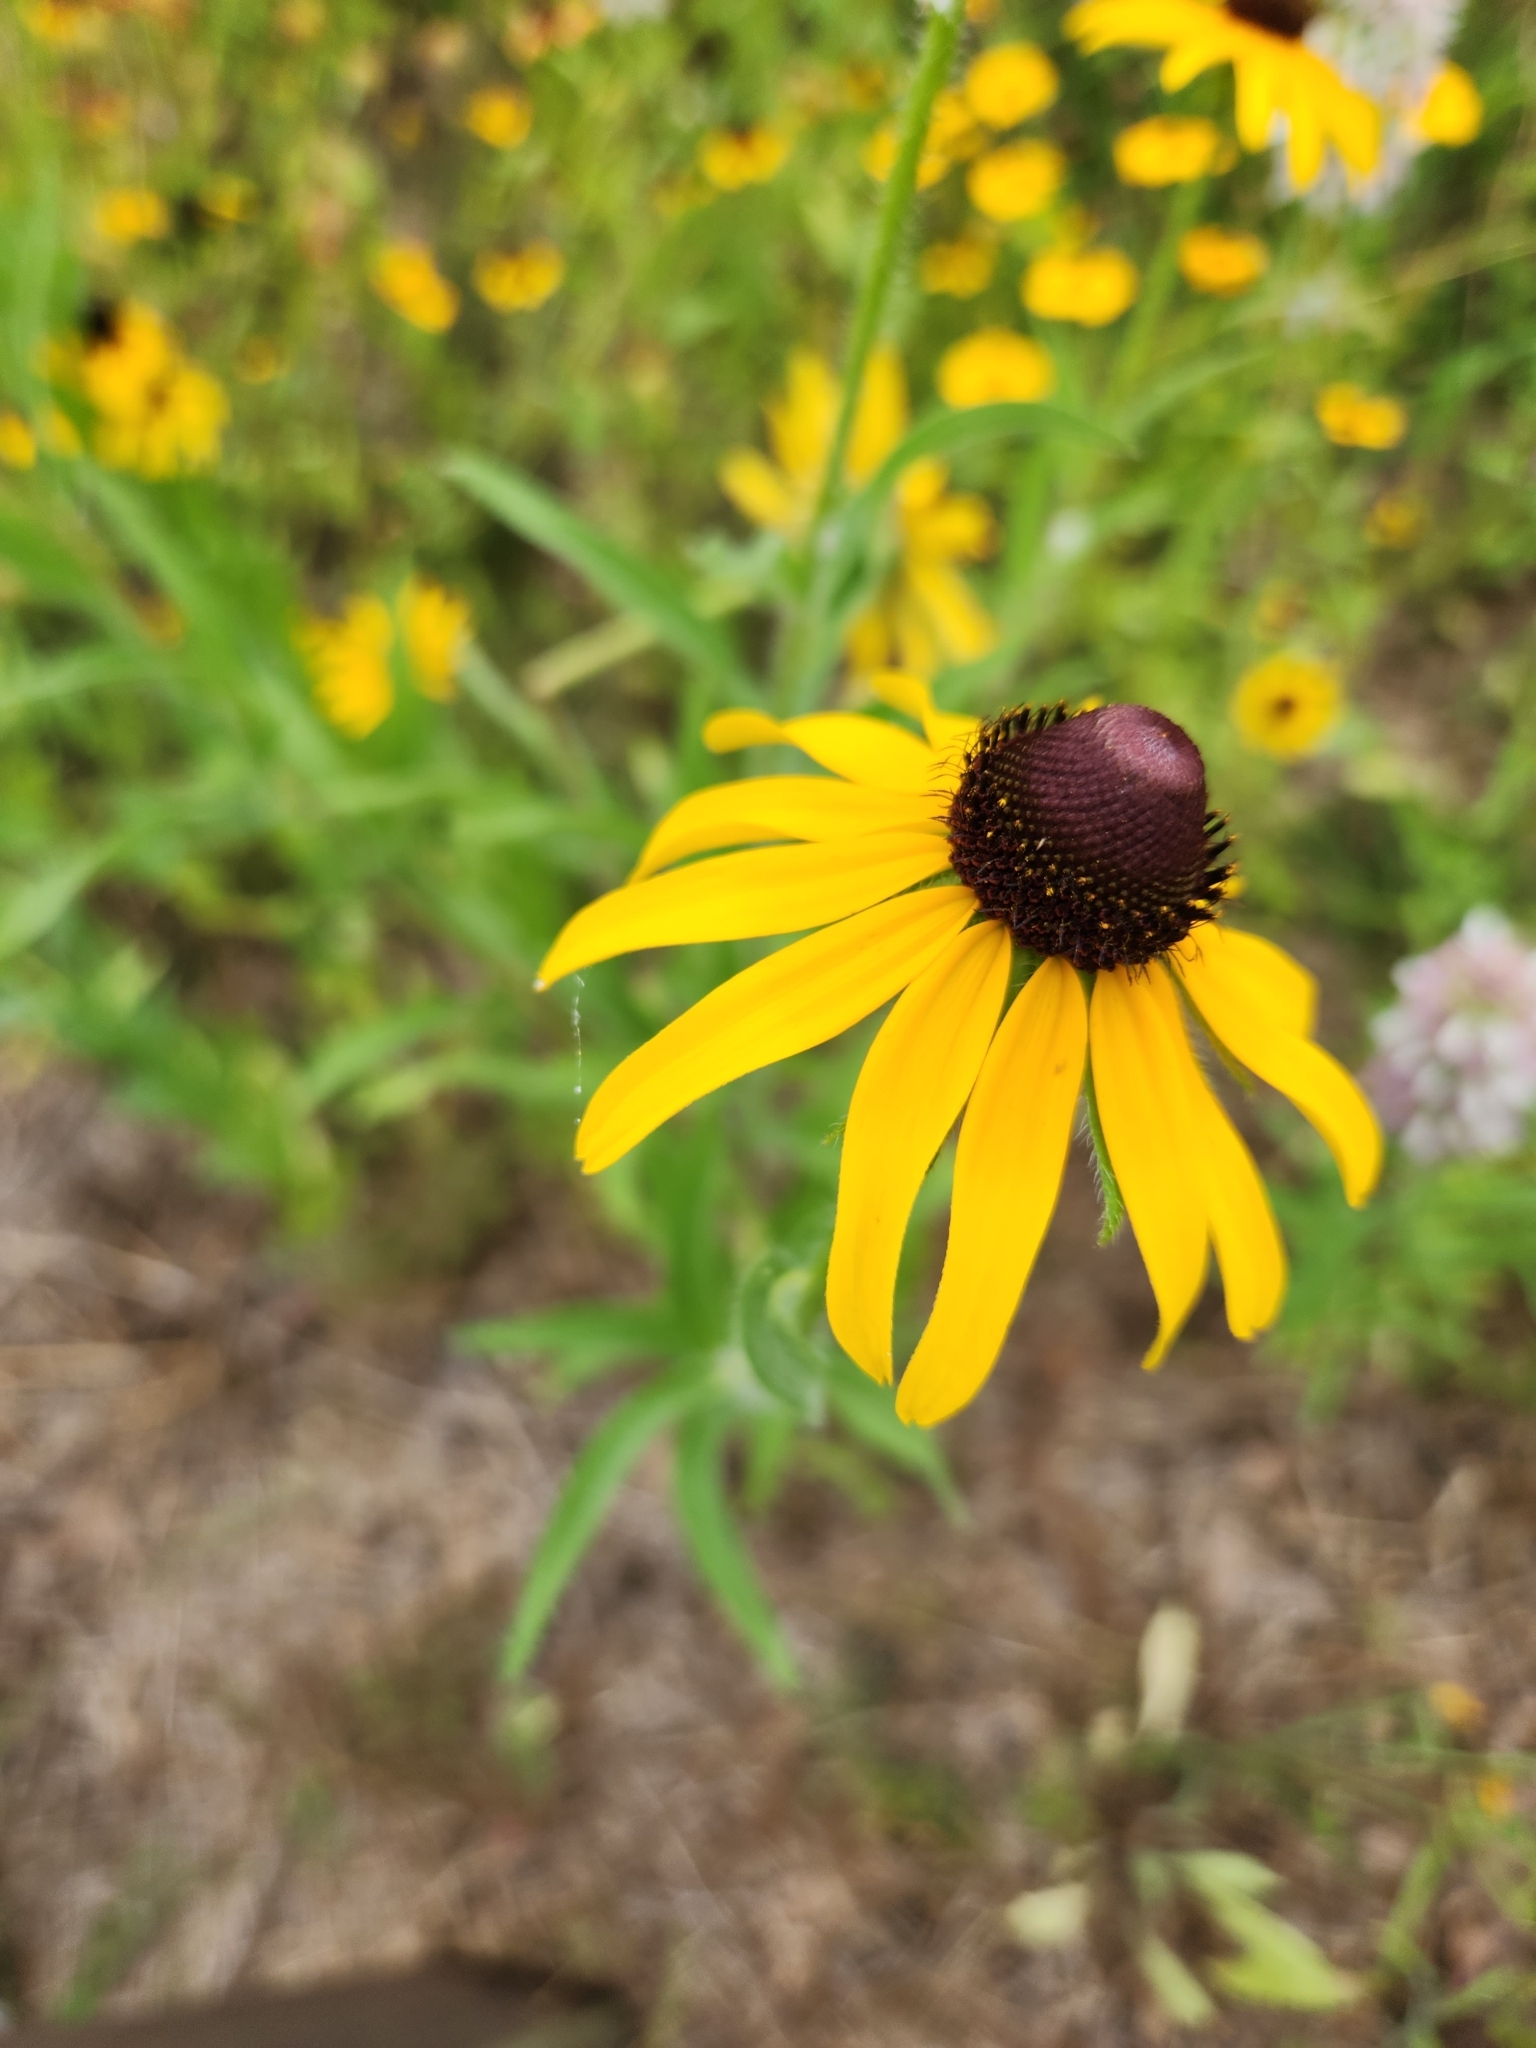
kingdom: Plantae
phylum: Tracheophyta
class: Magnoliopsida
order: Asterales
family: Asteraceae
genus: Rudbeckia
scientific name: Rudbeckia hirta
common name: Black-eyed-susan
